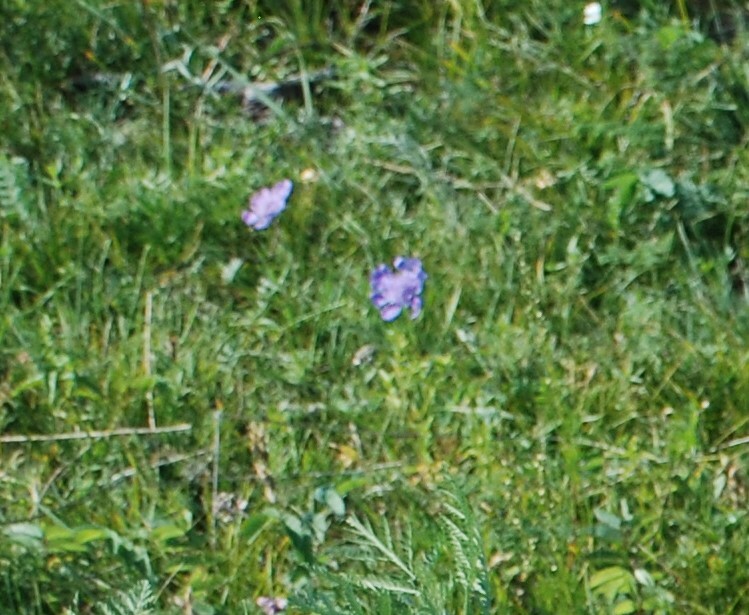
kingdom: Plantae
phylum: Tracheophyta
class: Magnoliopsida
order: Dipsacales
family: Caprifoliaceae
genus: Scabiosa
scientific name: Scabiosa comosa
